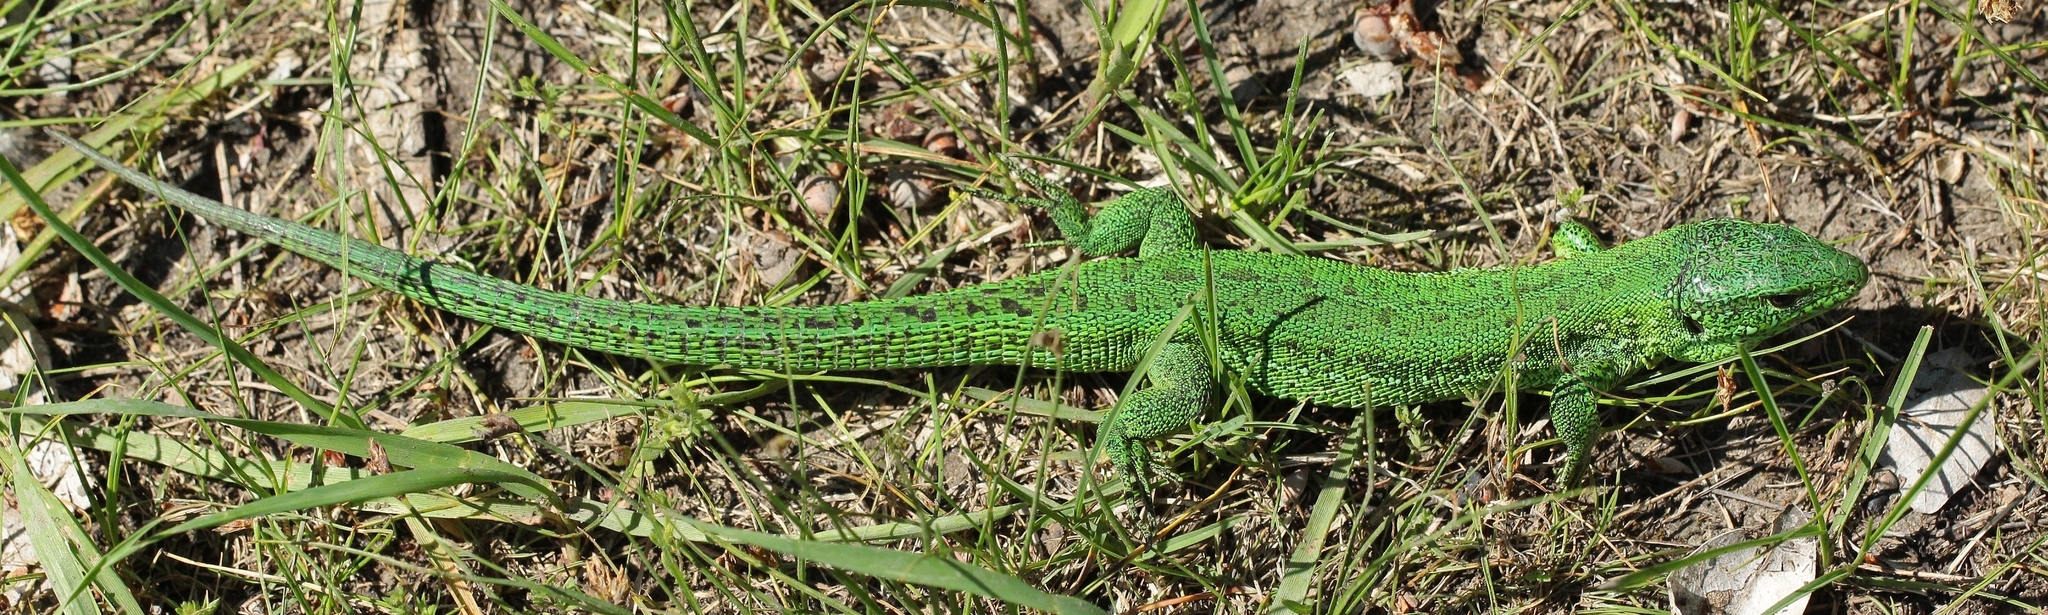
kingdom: Animalia
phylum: Chordata
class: Squamata
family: Lacertidae
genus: Lacerta
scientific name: Lacerta agilis
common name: Sand lizard
